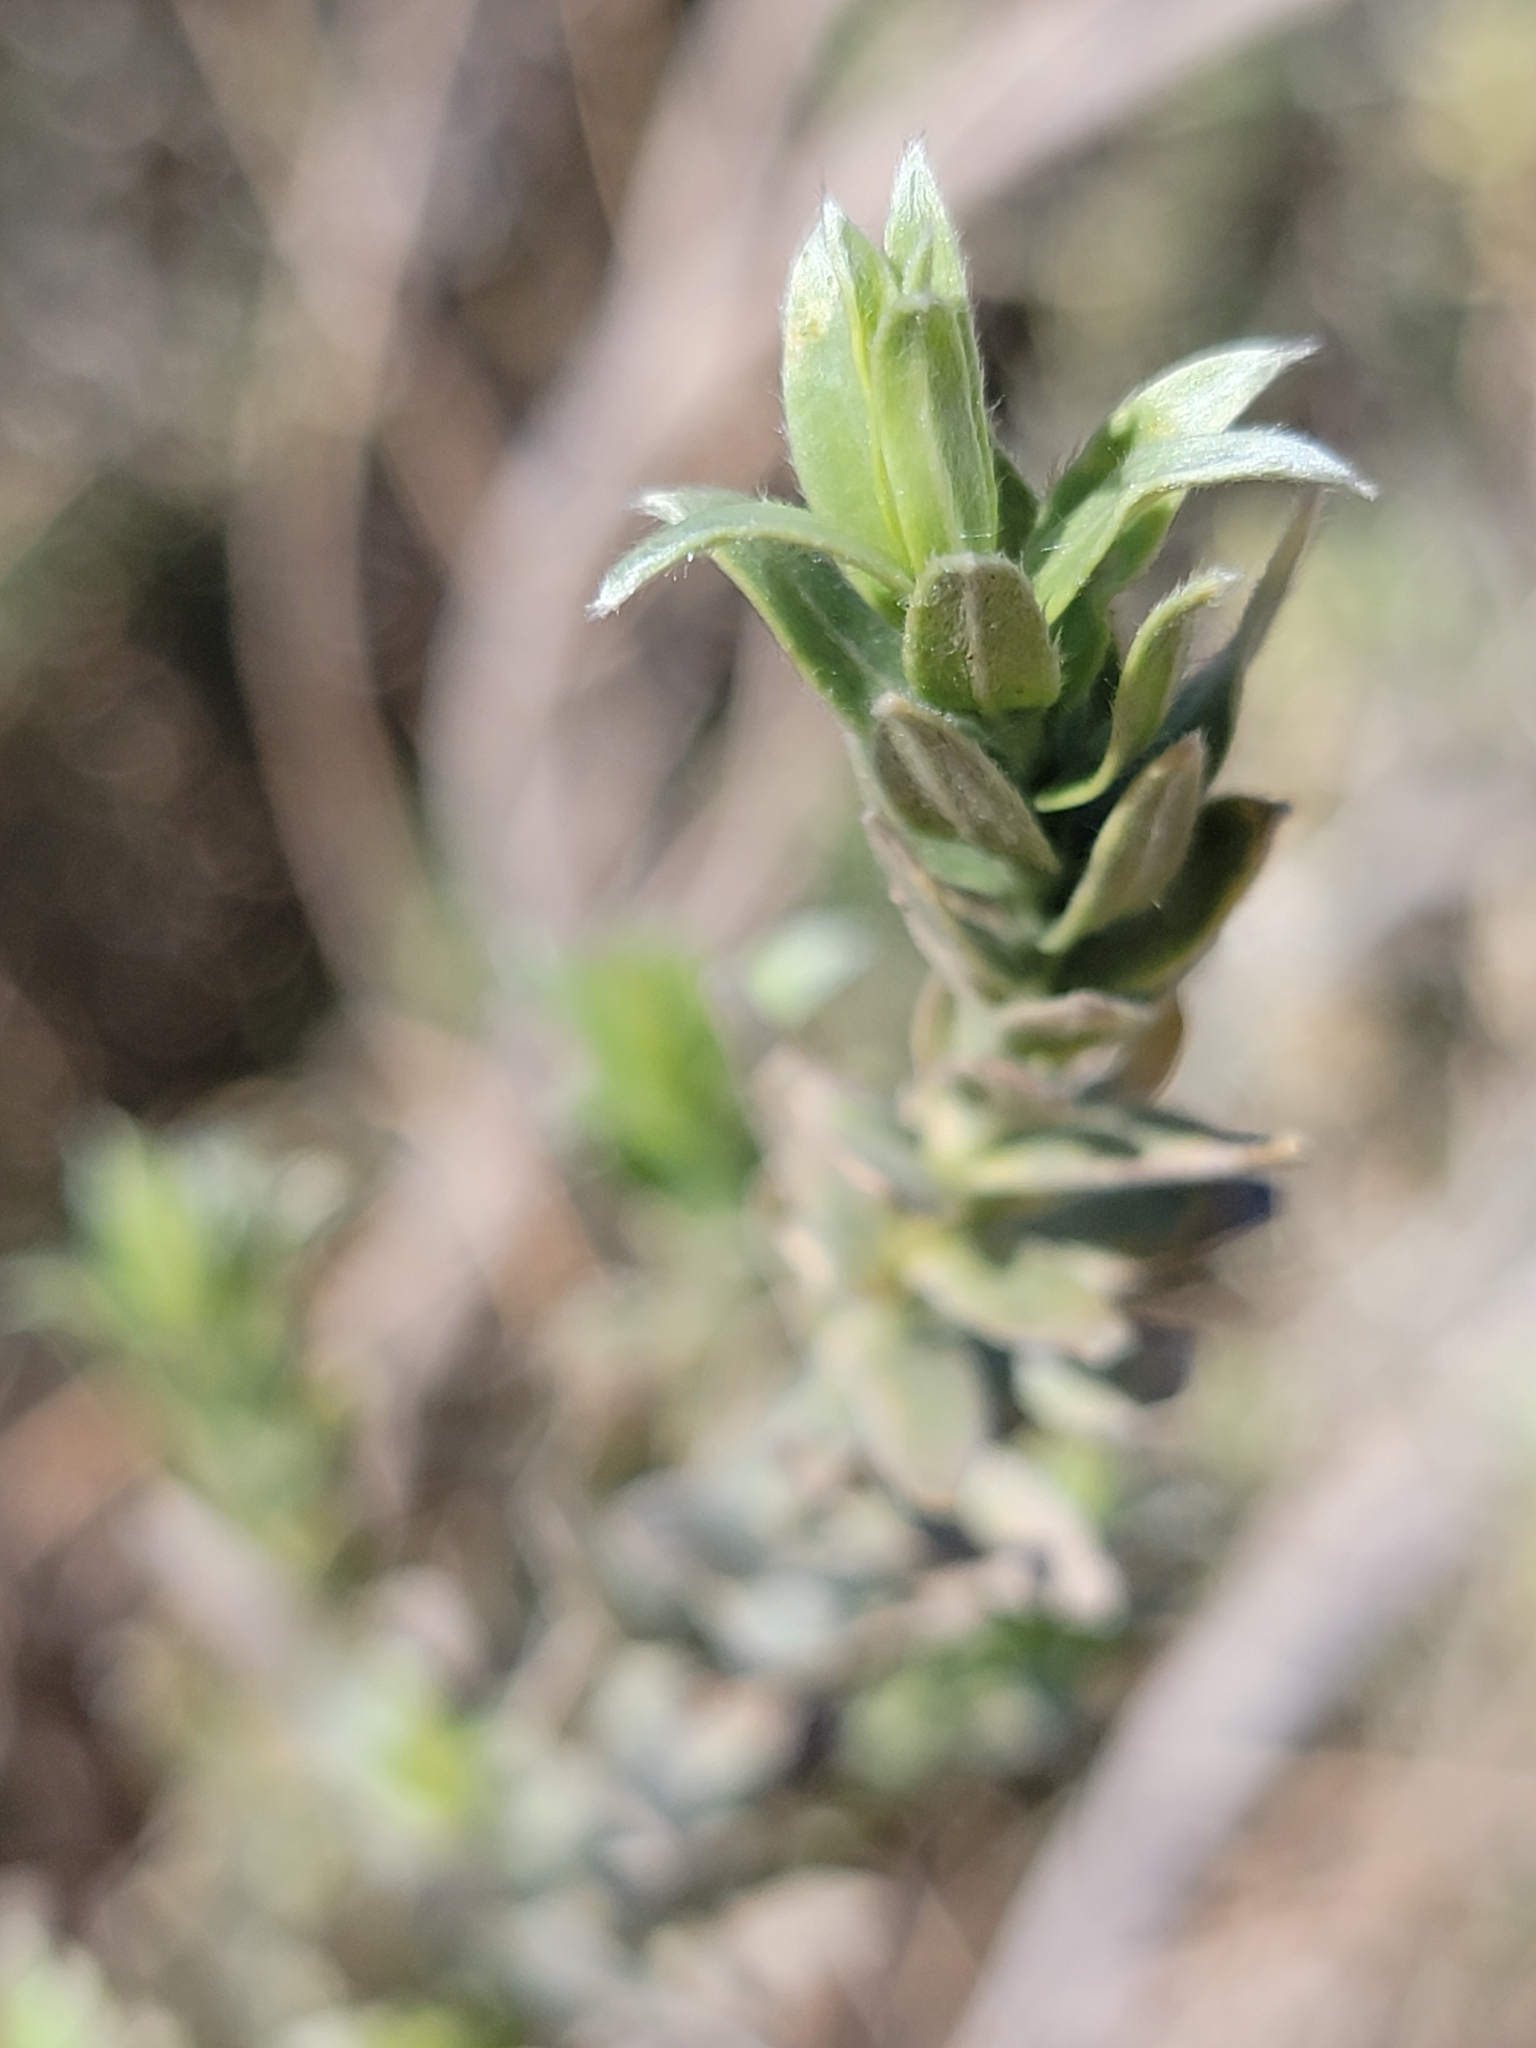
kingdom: Plantae
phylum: Tracheophyta
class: Magnoliopsida
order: Asterales
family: Asteraceae
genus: Pluchea
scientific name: Pluchea
